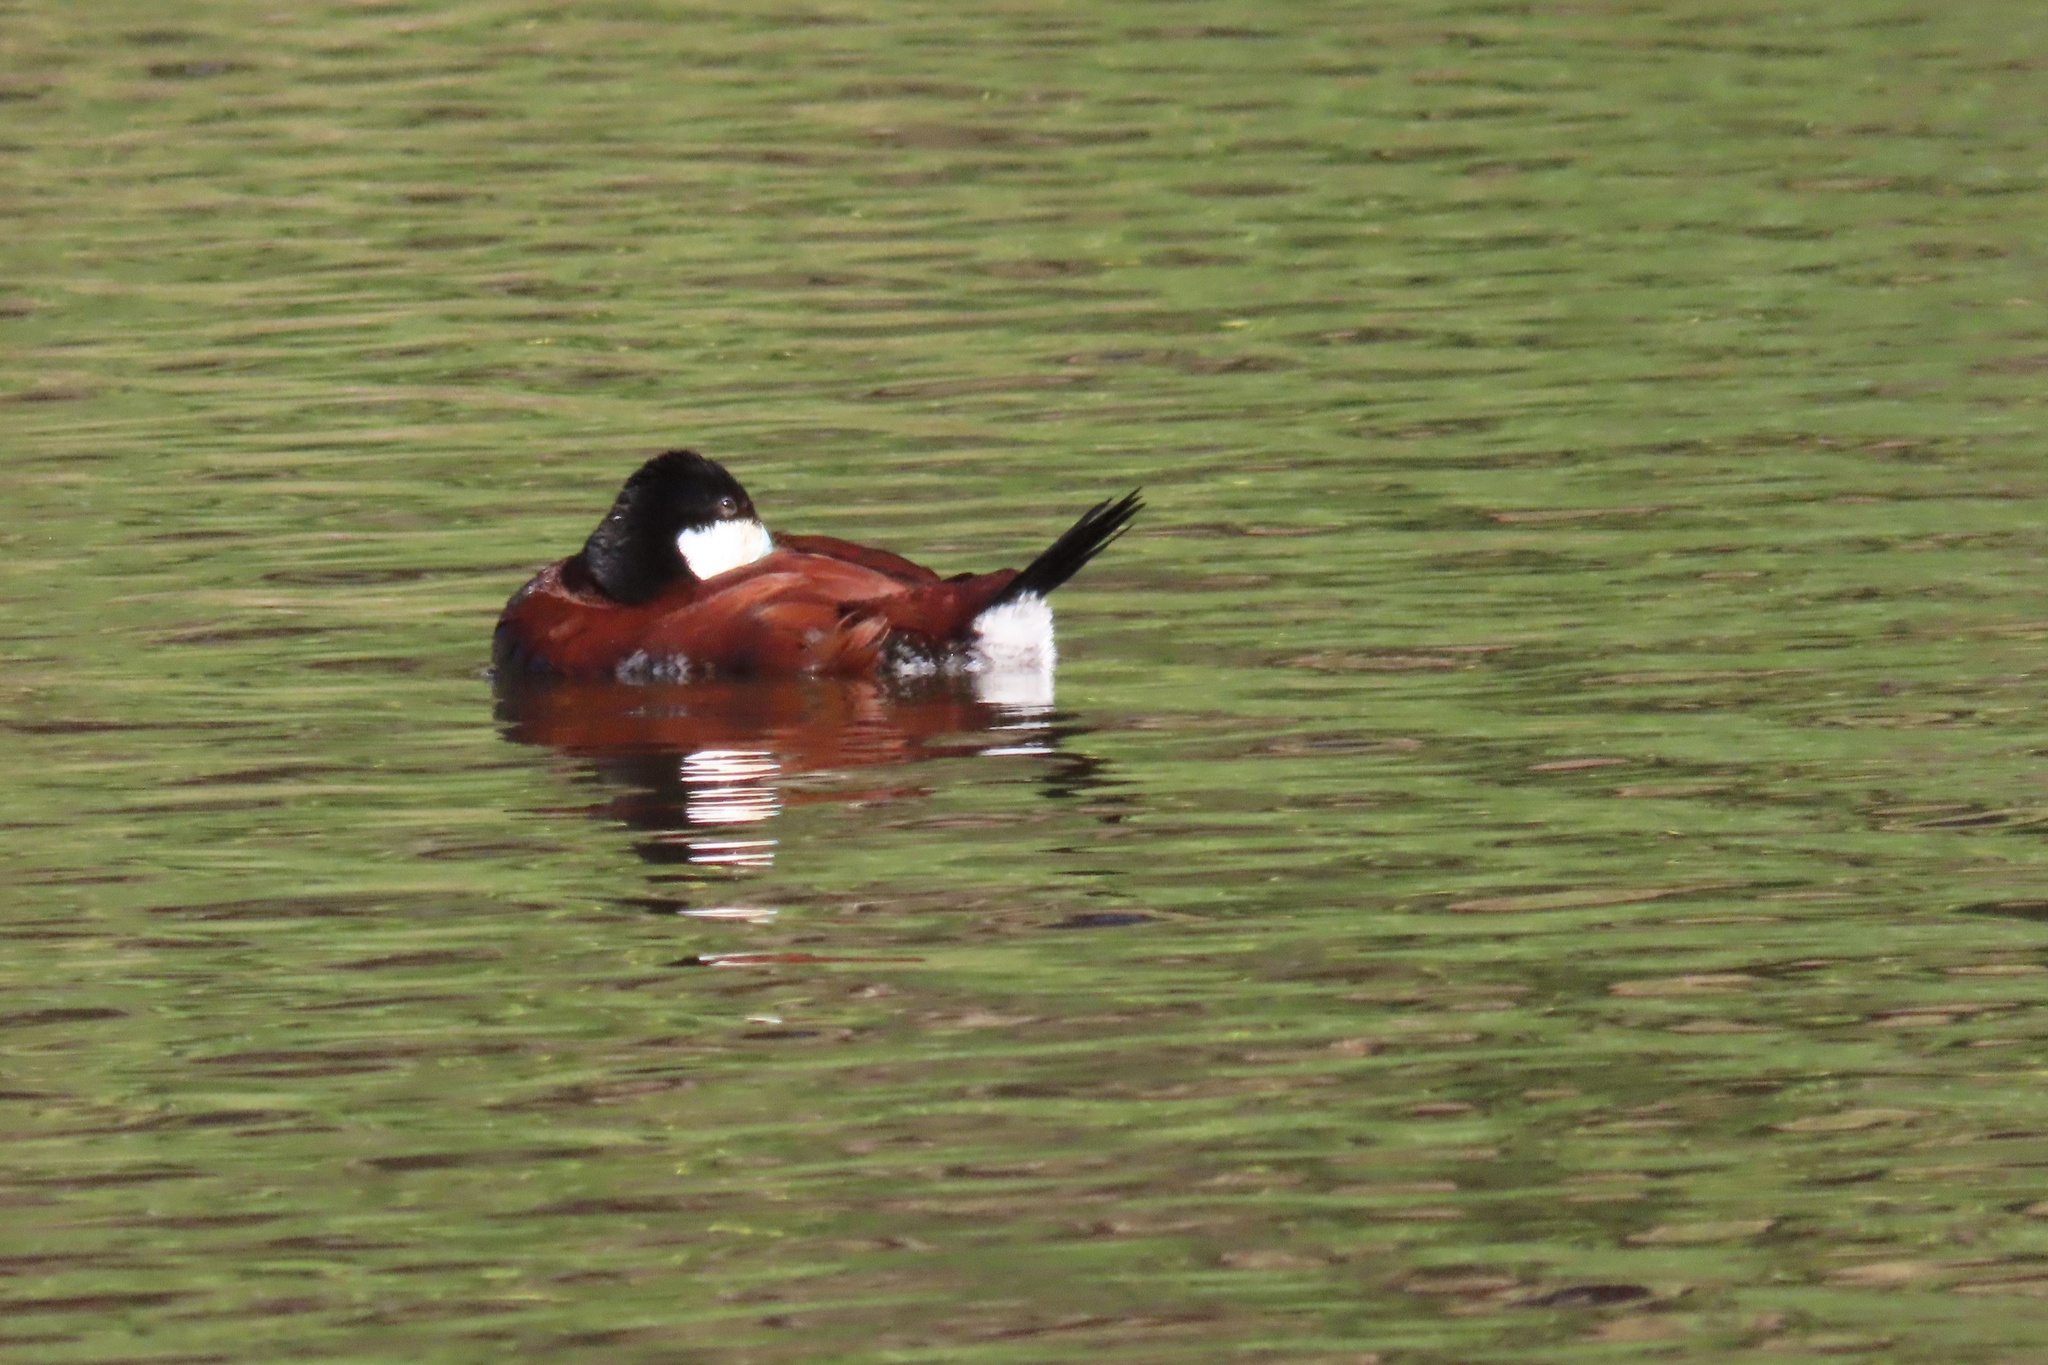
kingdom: Animalia
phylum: Chordata
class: Aves
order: Anseriformes
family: Anatidae
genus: Oxyura
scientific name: Oxyura jamaicensis
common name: Ruddy duck
